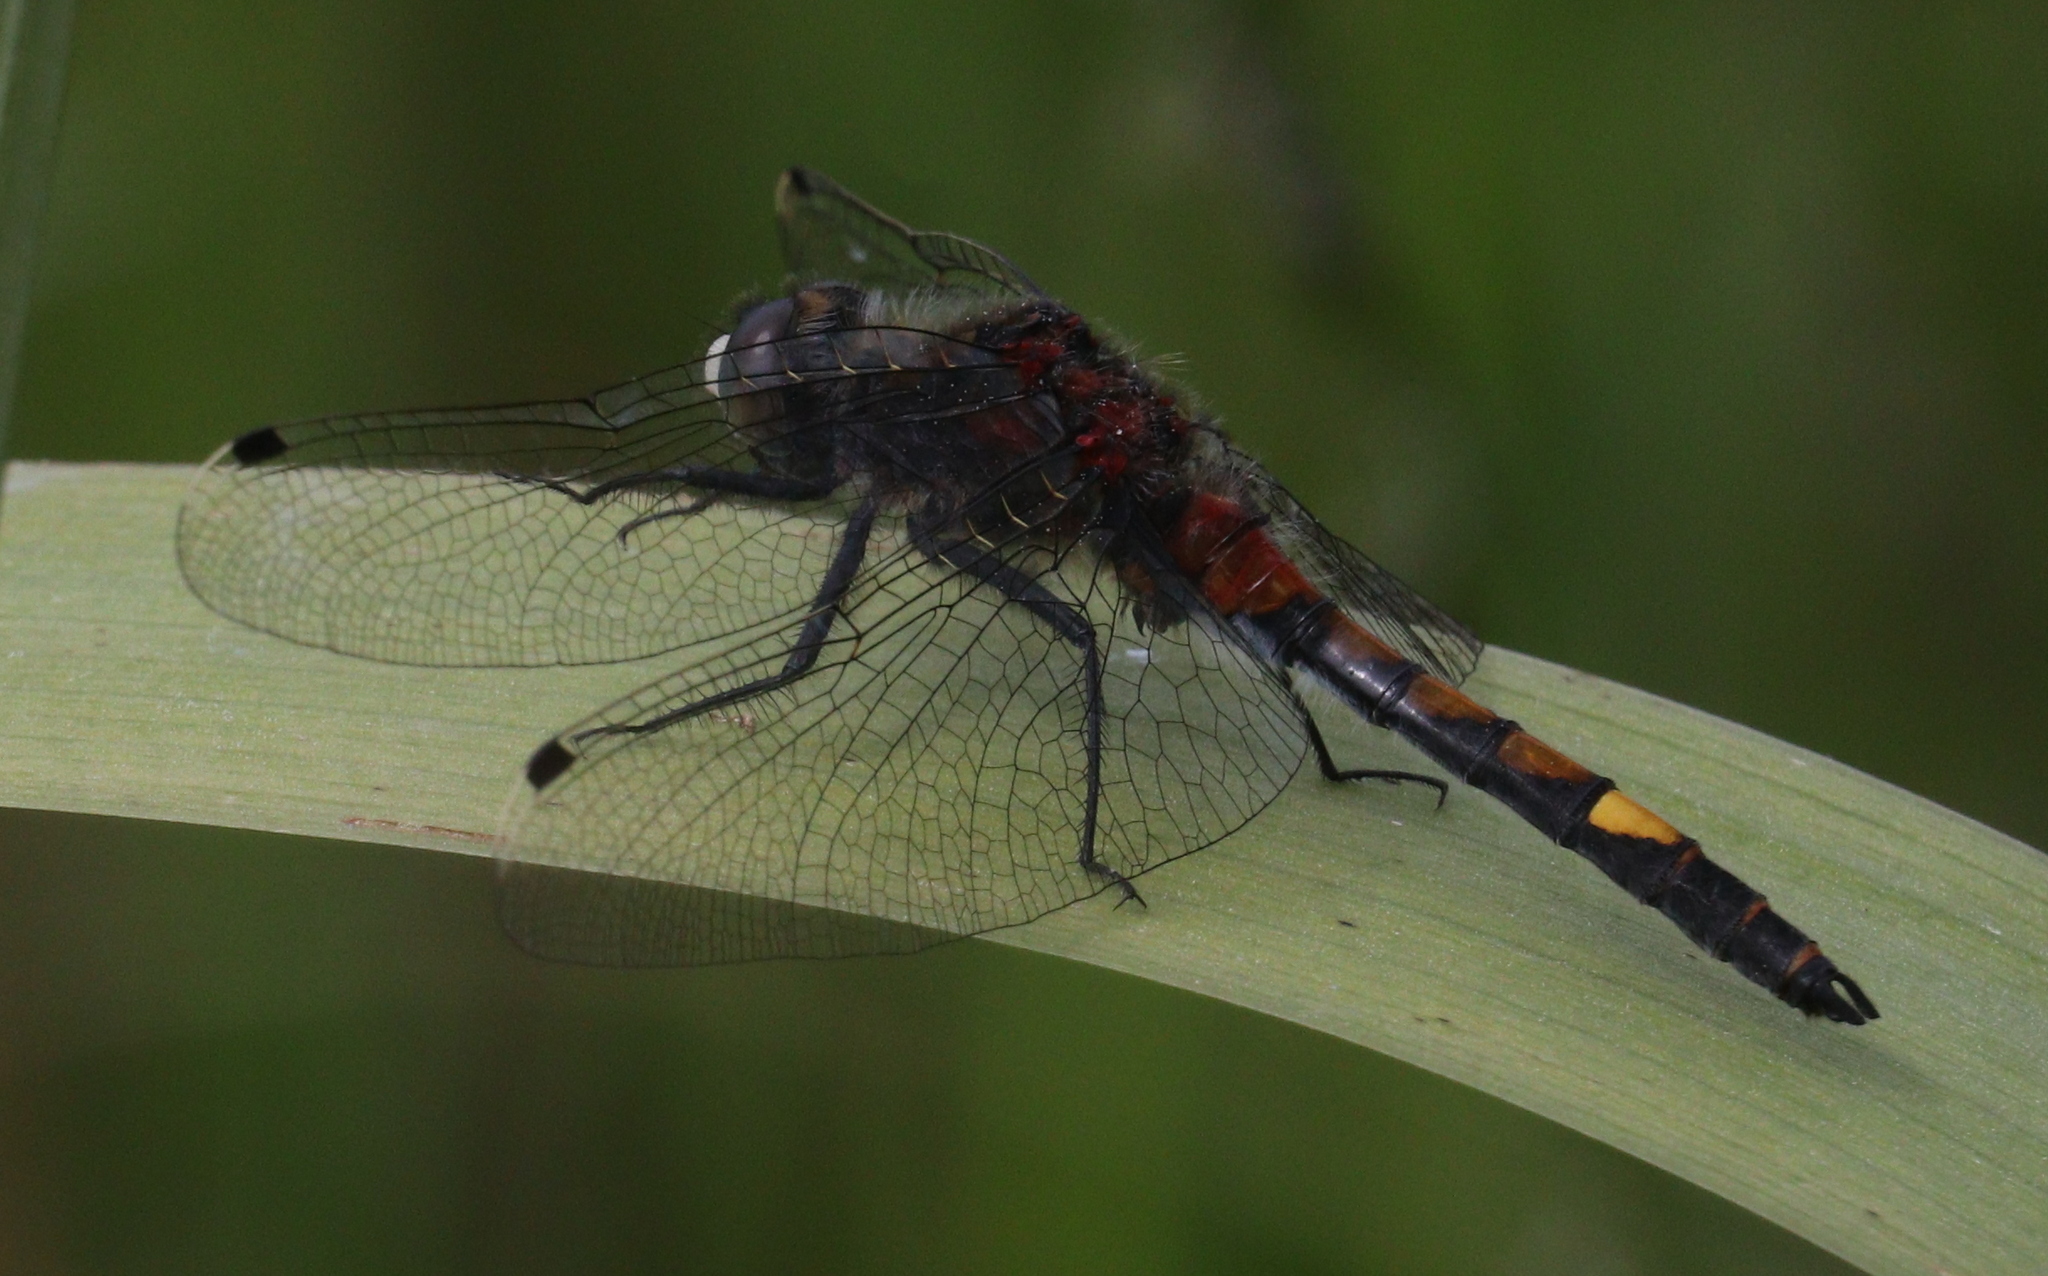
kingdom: Animalia
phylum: Arthropoda
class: Insecta
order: Odonata
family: Libellulidae
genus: Leucorrhinia
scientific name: Leucorrhinia pectoralis
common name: Yellow-spotted whiteface
